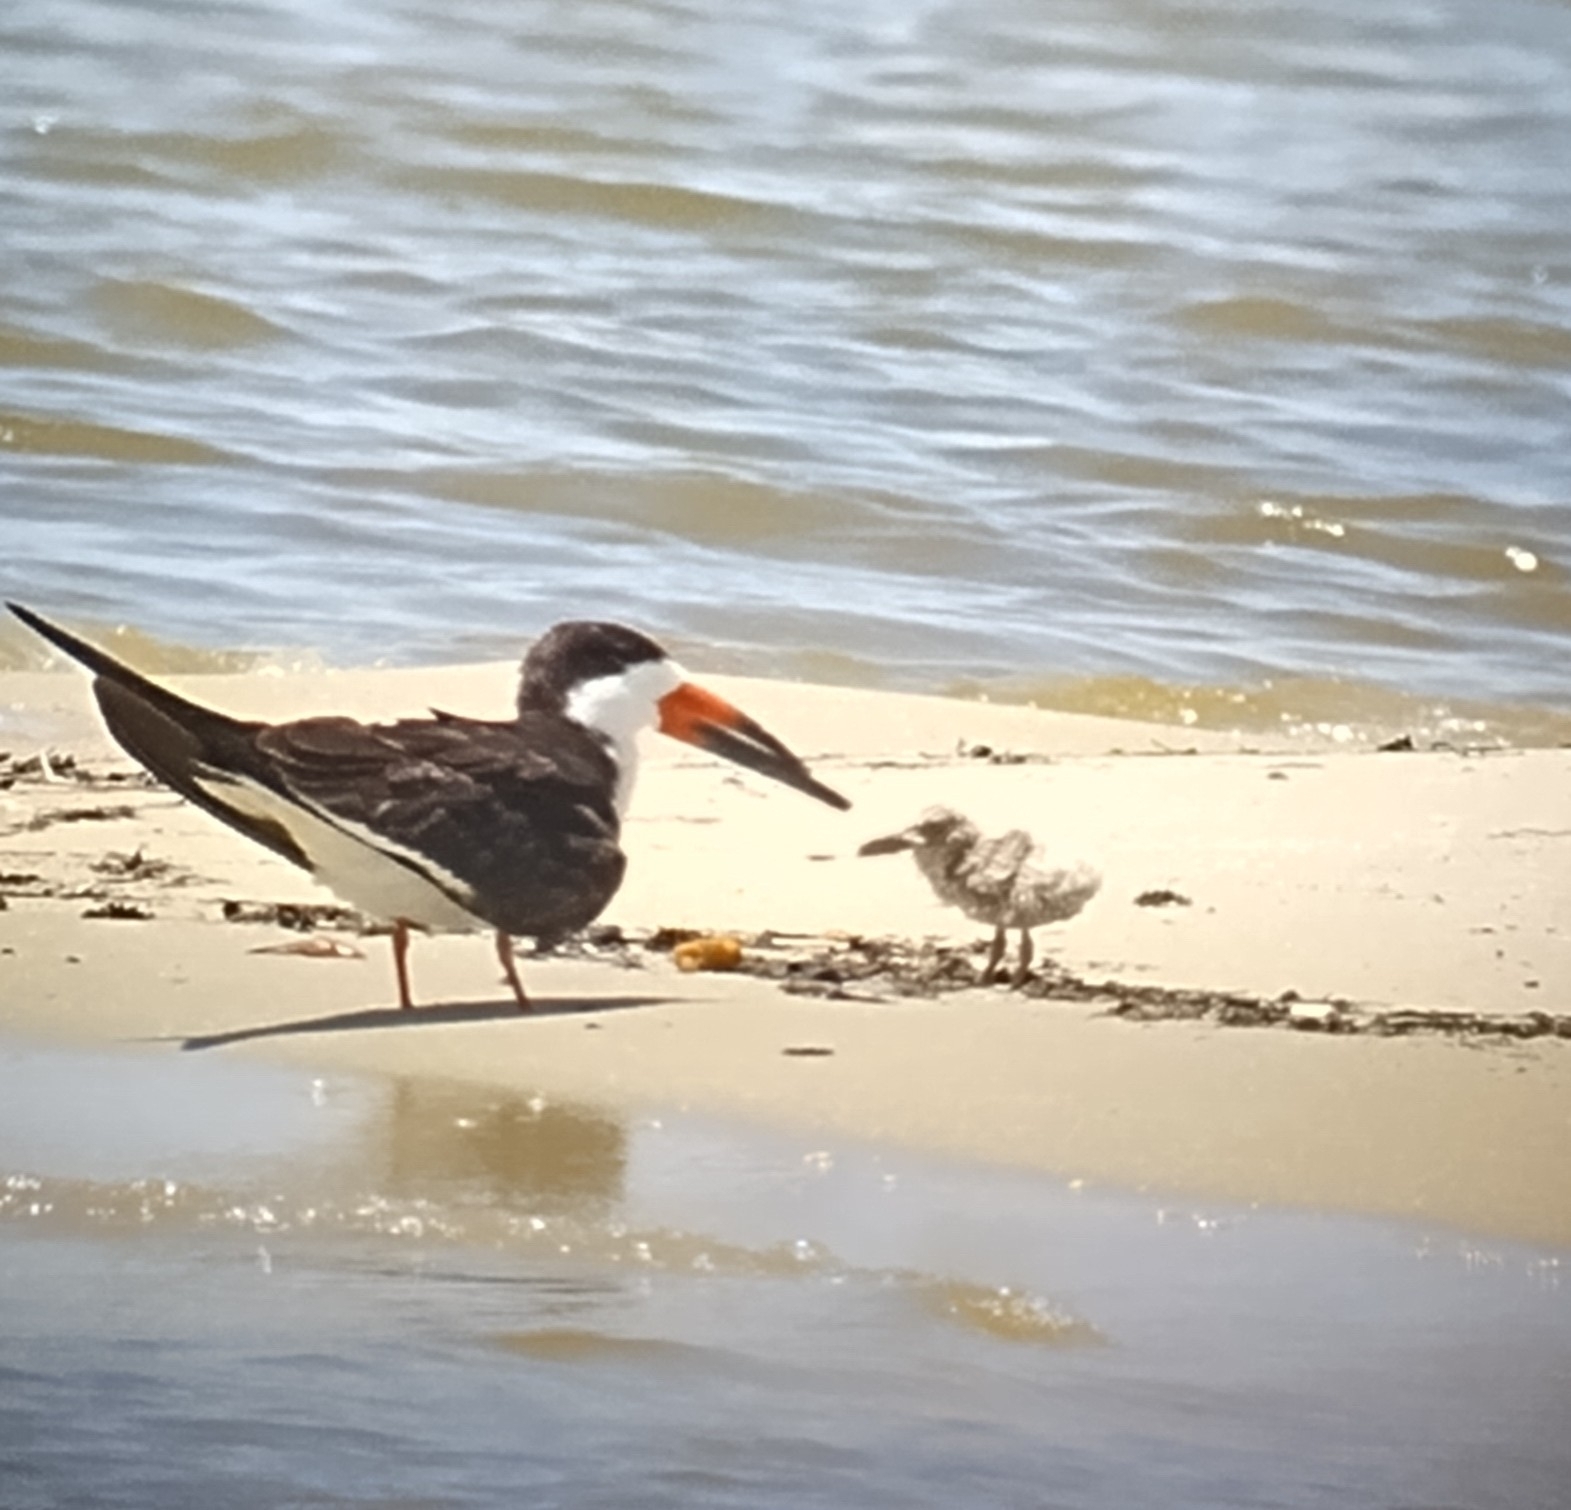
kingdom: Animalia
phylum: Chordata
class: Aves
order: Charadriiformes
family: Laridae
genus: Rynchops
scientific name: Rynchops niger
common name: Black skimmer
